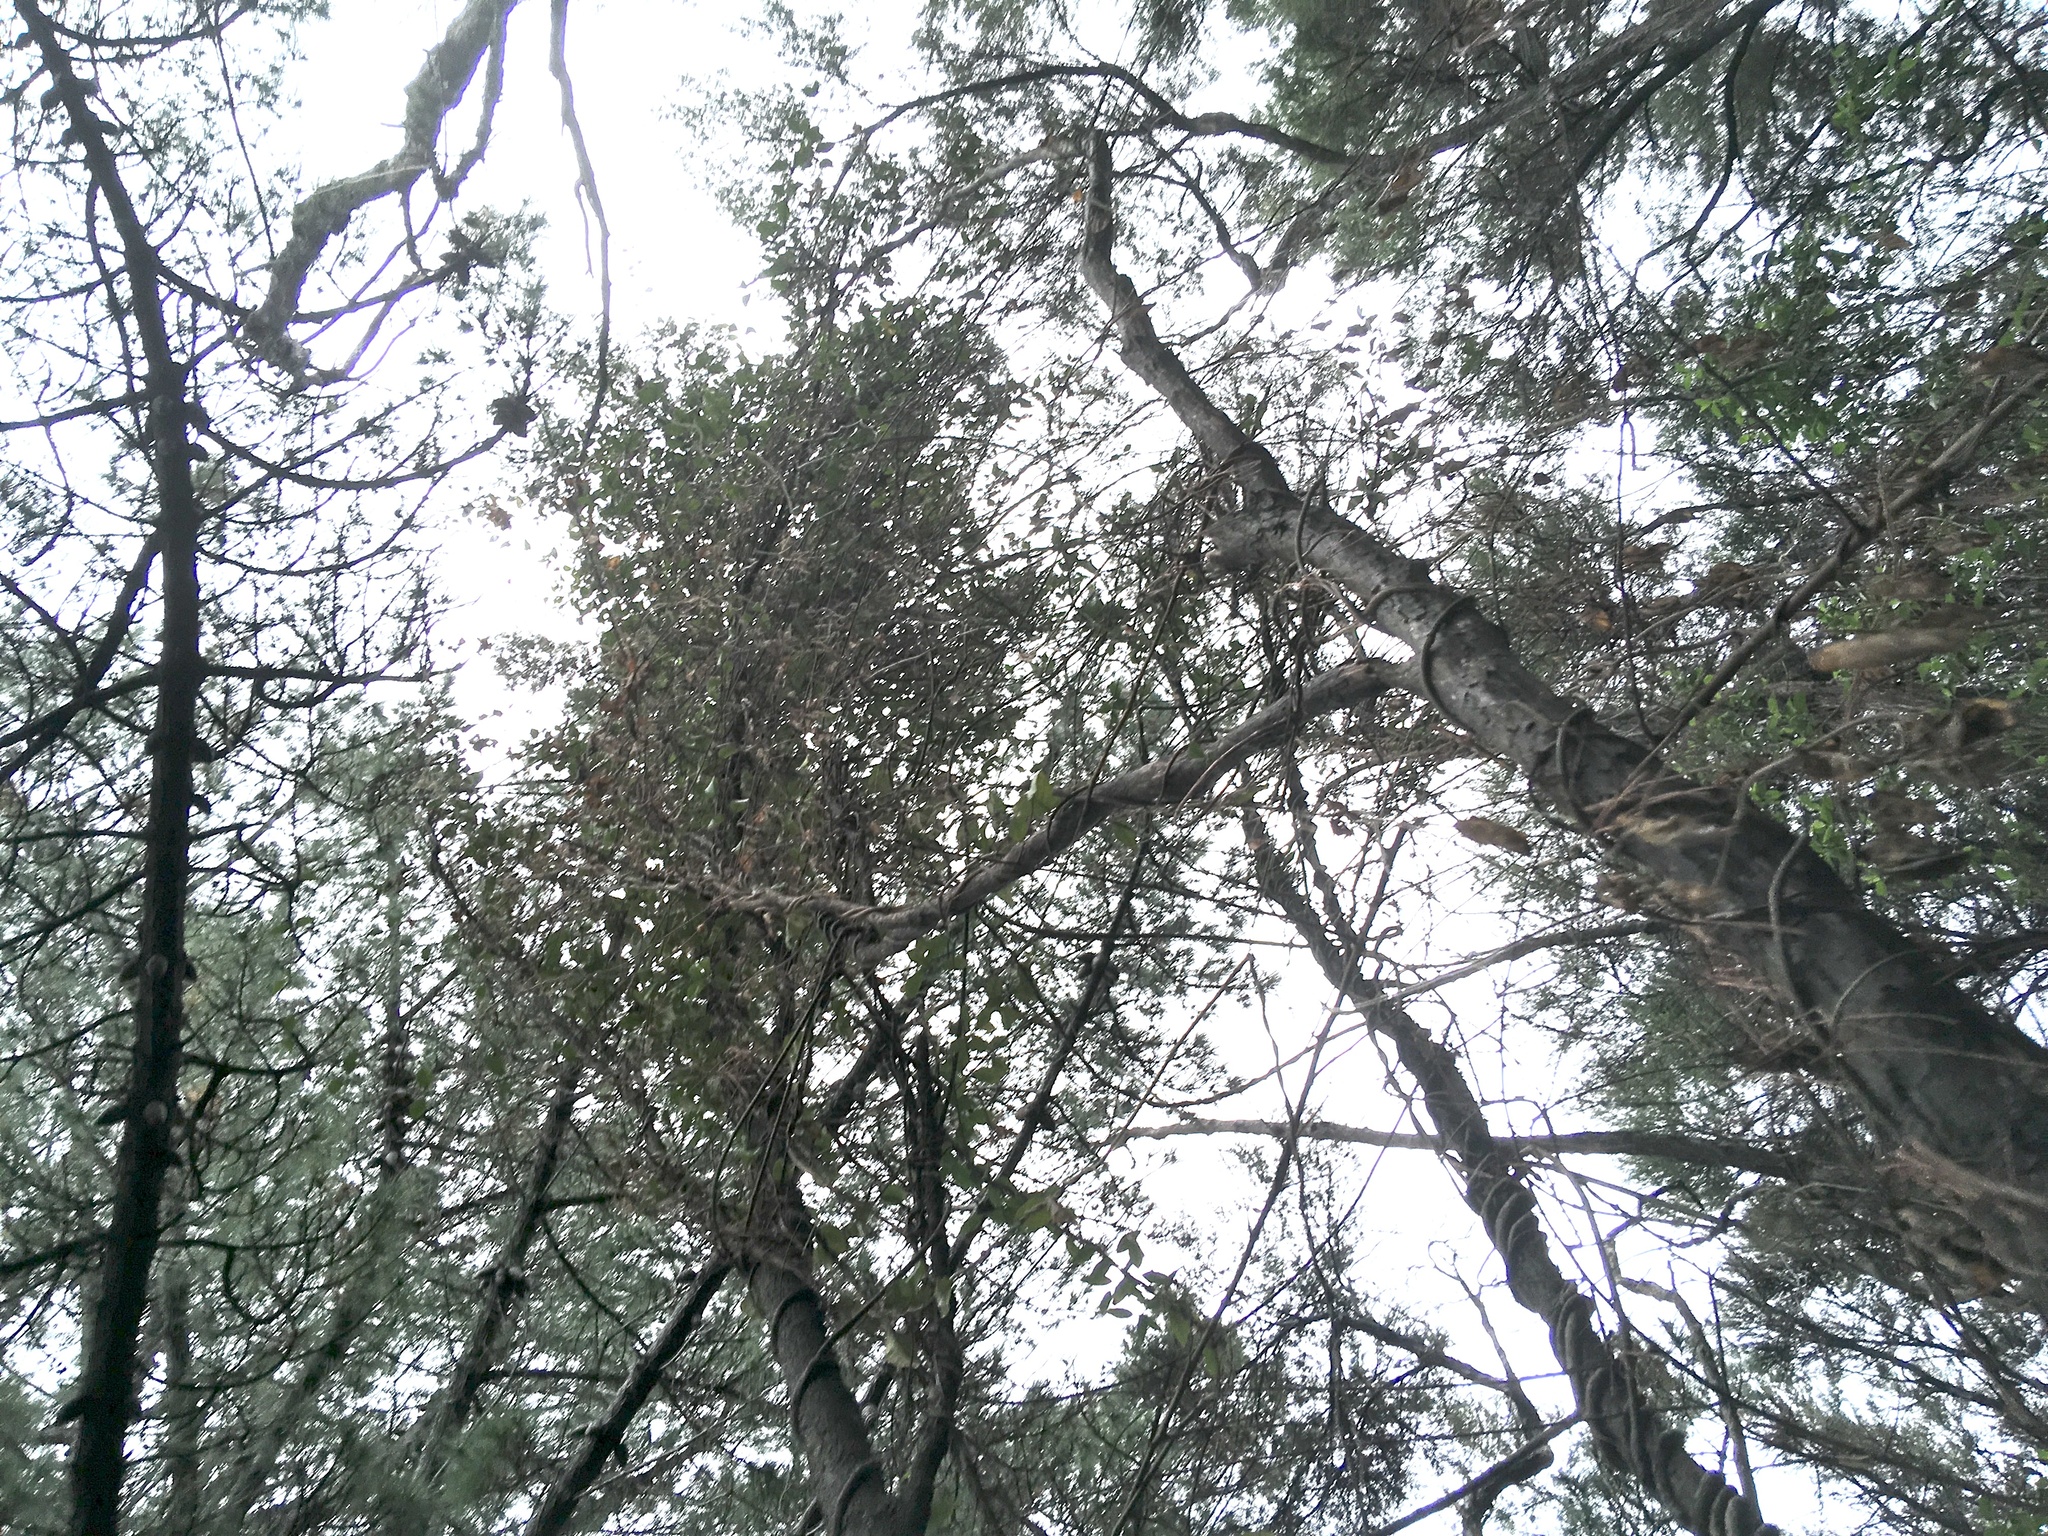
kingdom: Plantae
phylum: Tracheophyta
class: Magnoliopsida
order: Ericales
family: Primulaceae
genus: Myrsine
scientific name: Myrsine australis
